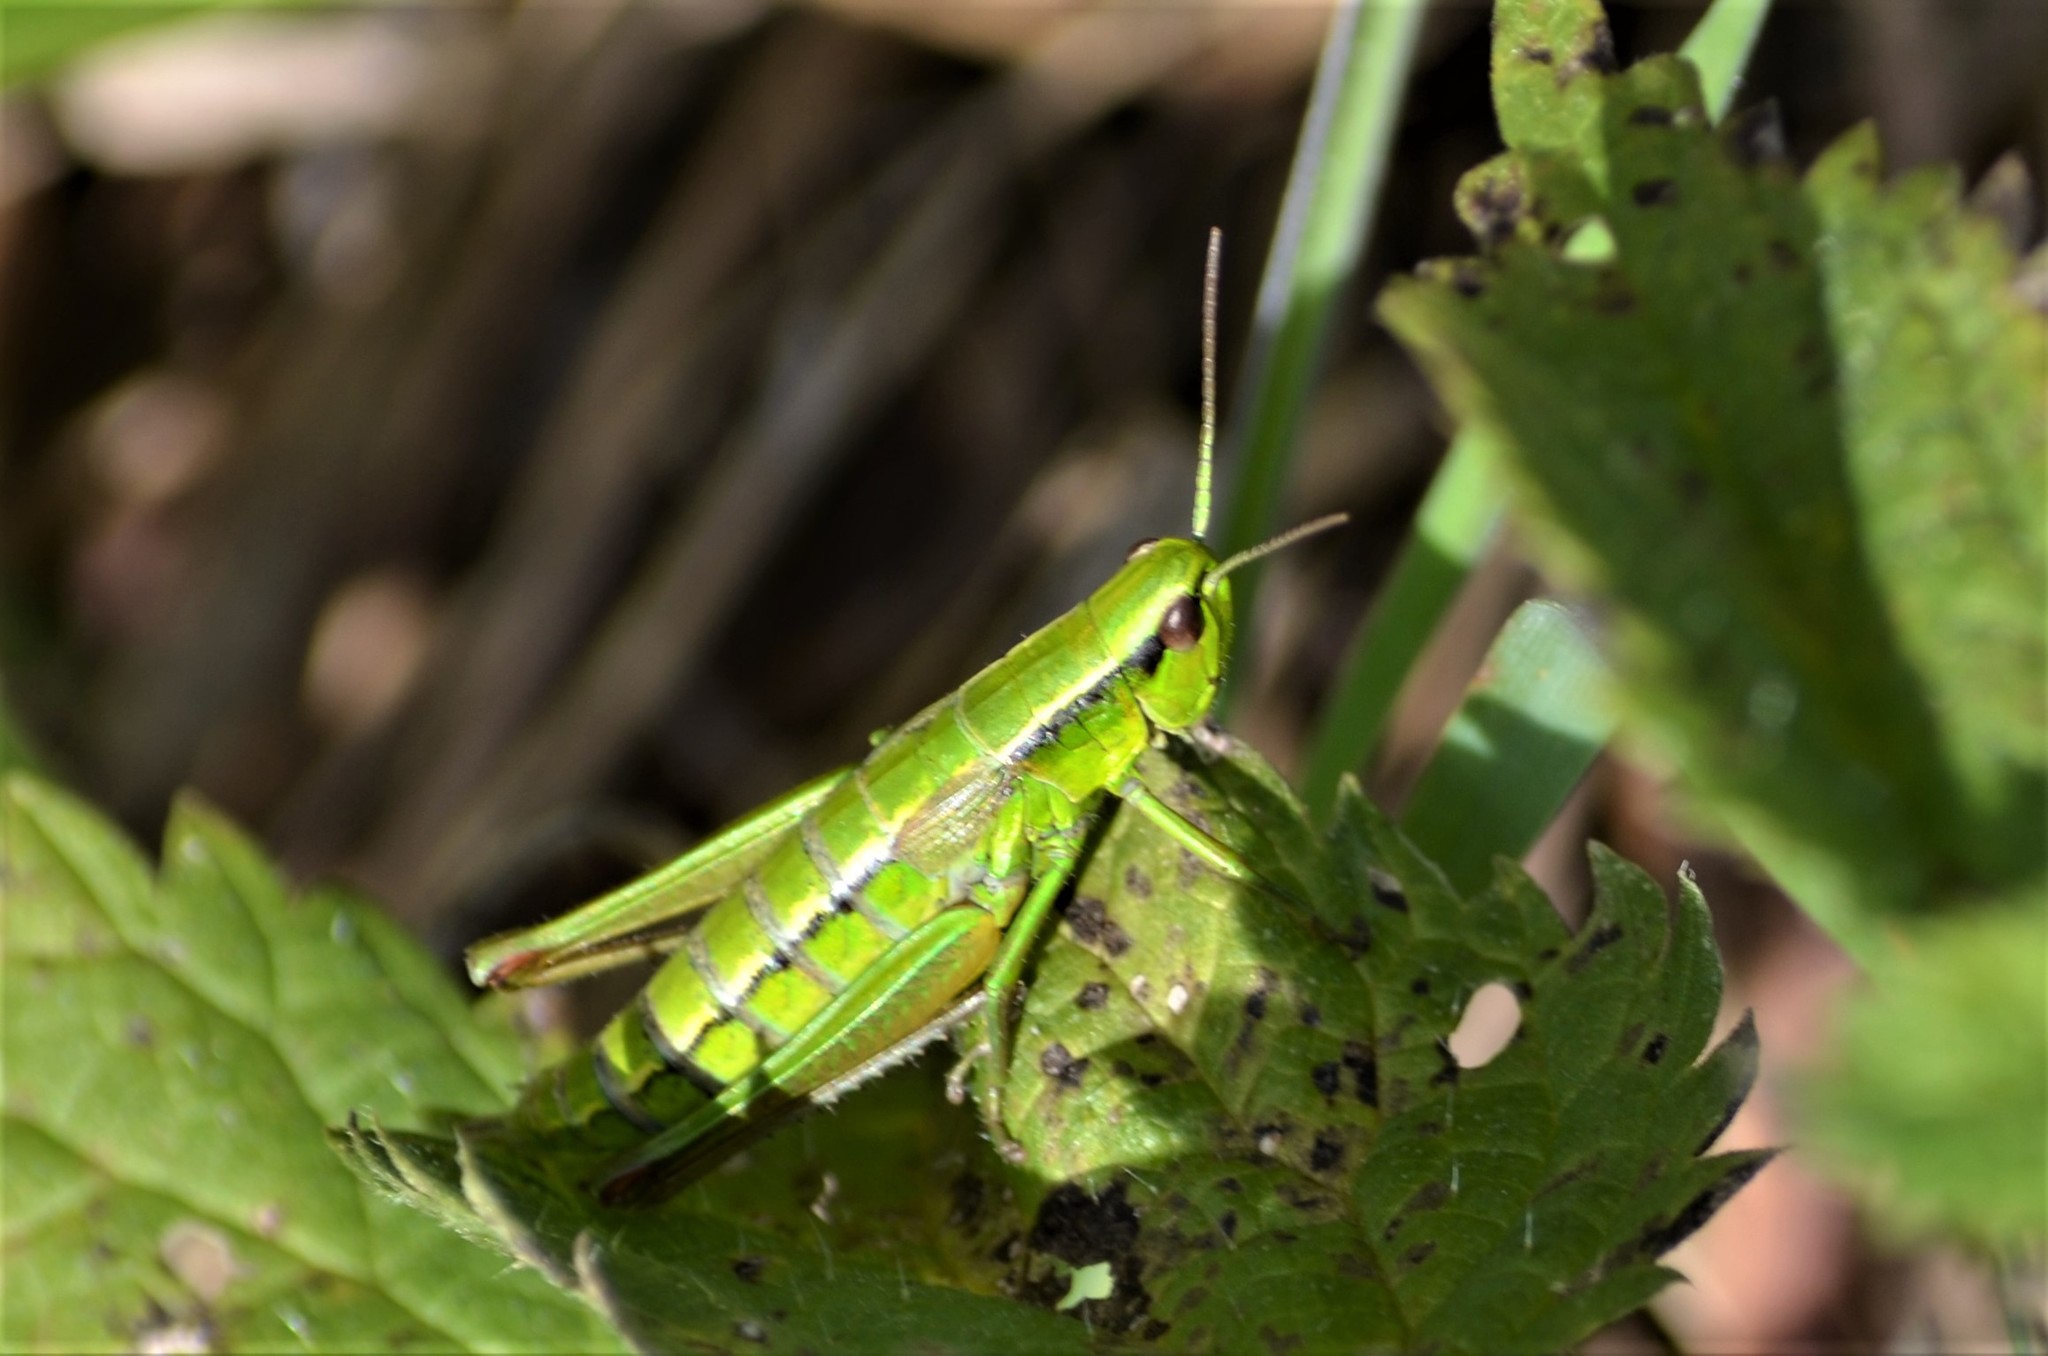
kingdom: Animalia
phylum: Arthropoda
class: Insecta
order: Orthoptera
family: Acrididae
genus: Euthystira
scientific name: Euthystira brachyptera
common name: Small gold grasshopper
